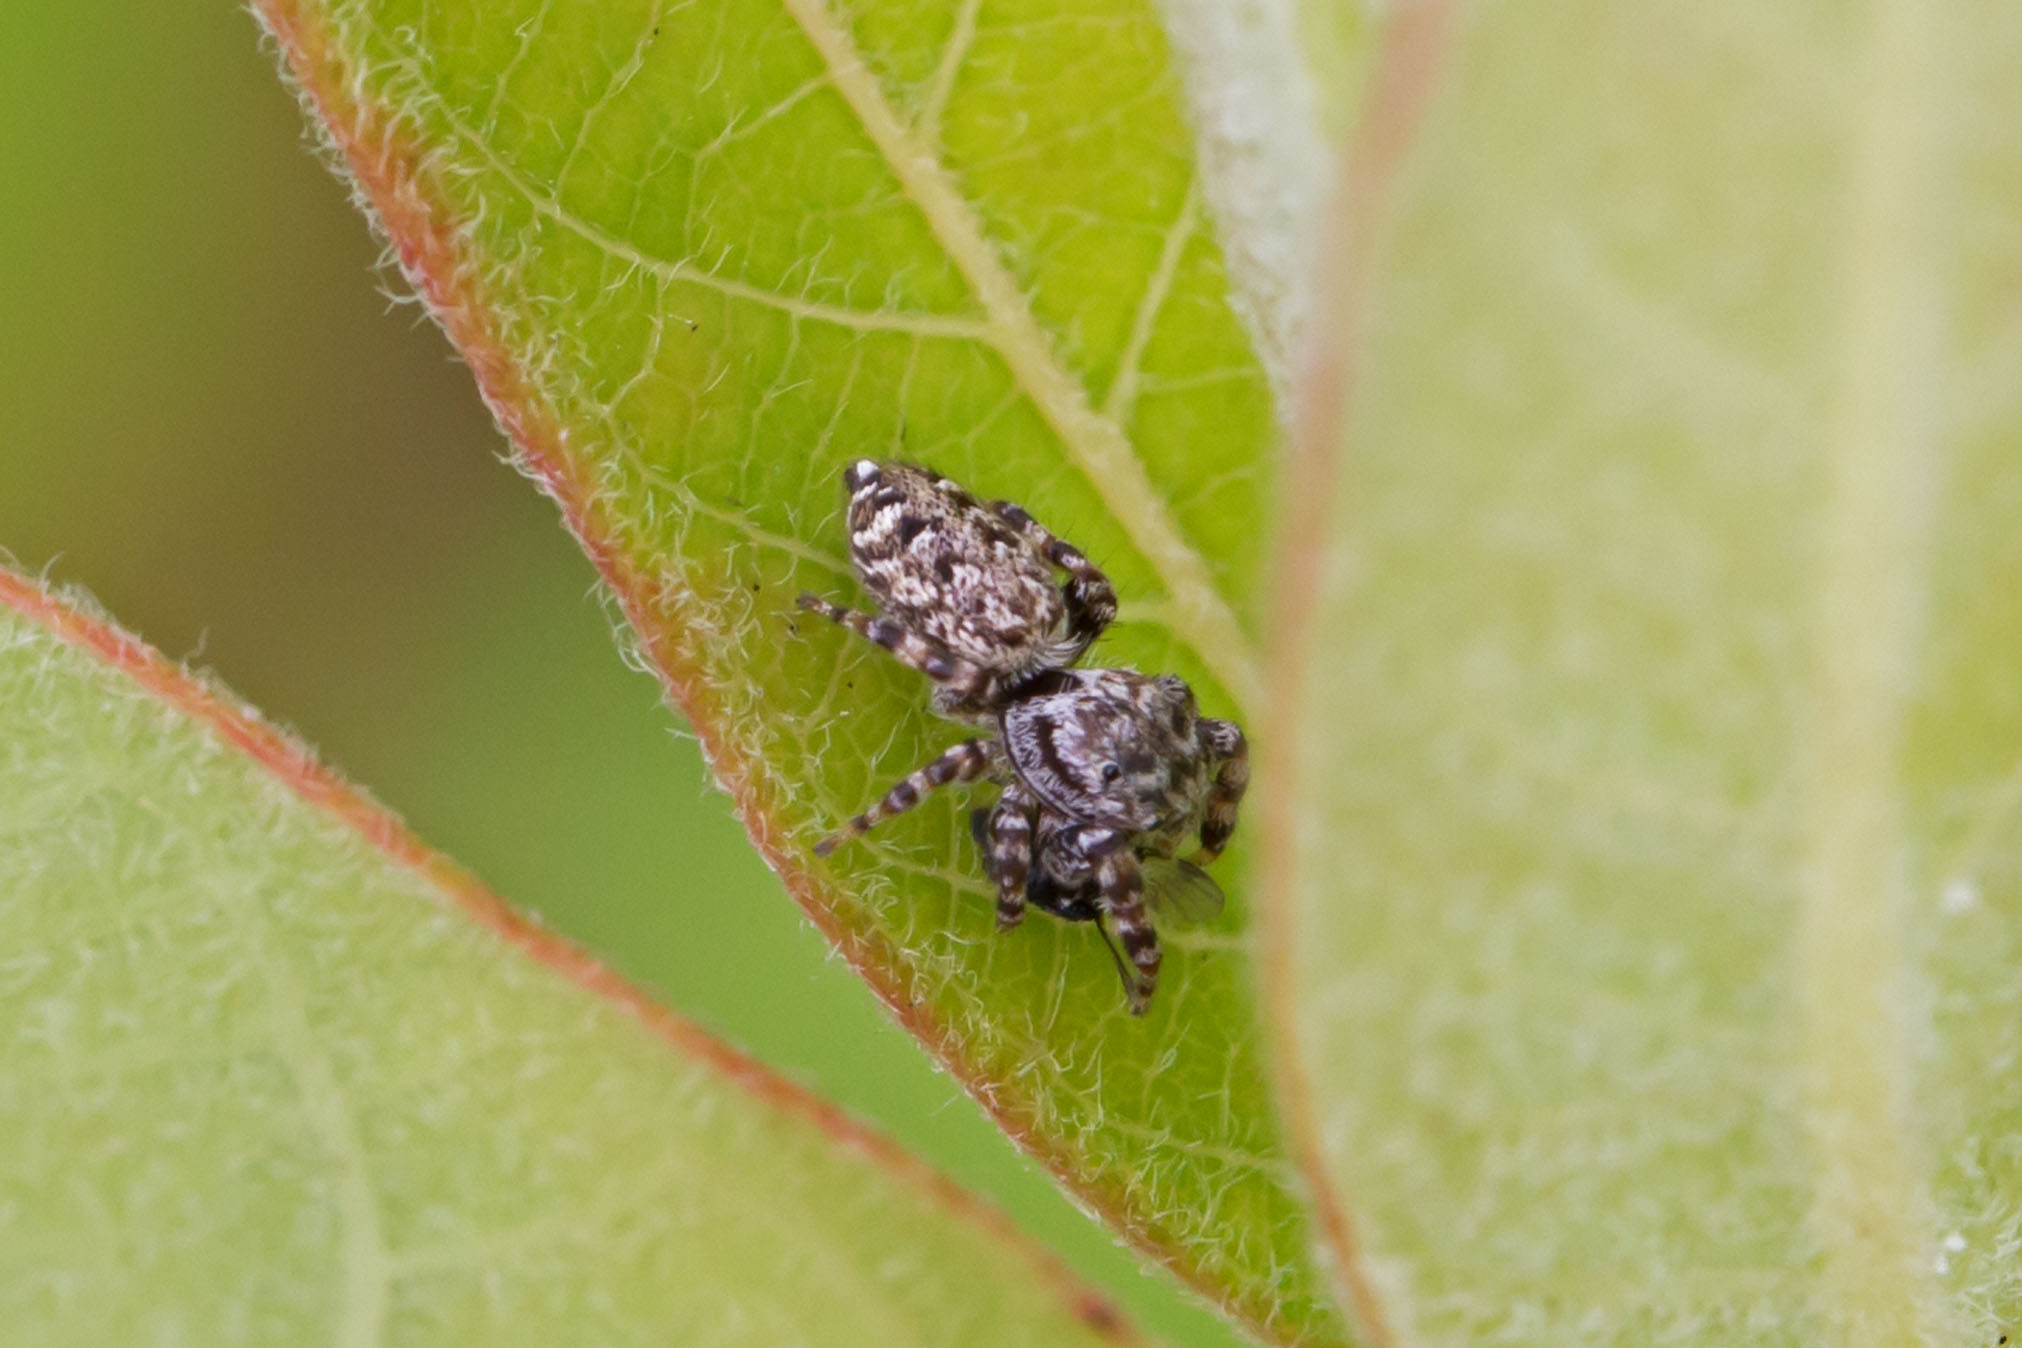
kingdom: Animalia
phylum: Arthropoda
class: Arachnida
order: Araneae
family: Salticidae
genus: Pelegrina
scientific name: Pelegrina galathea
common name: Jumping spiders
